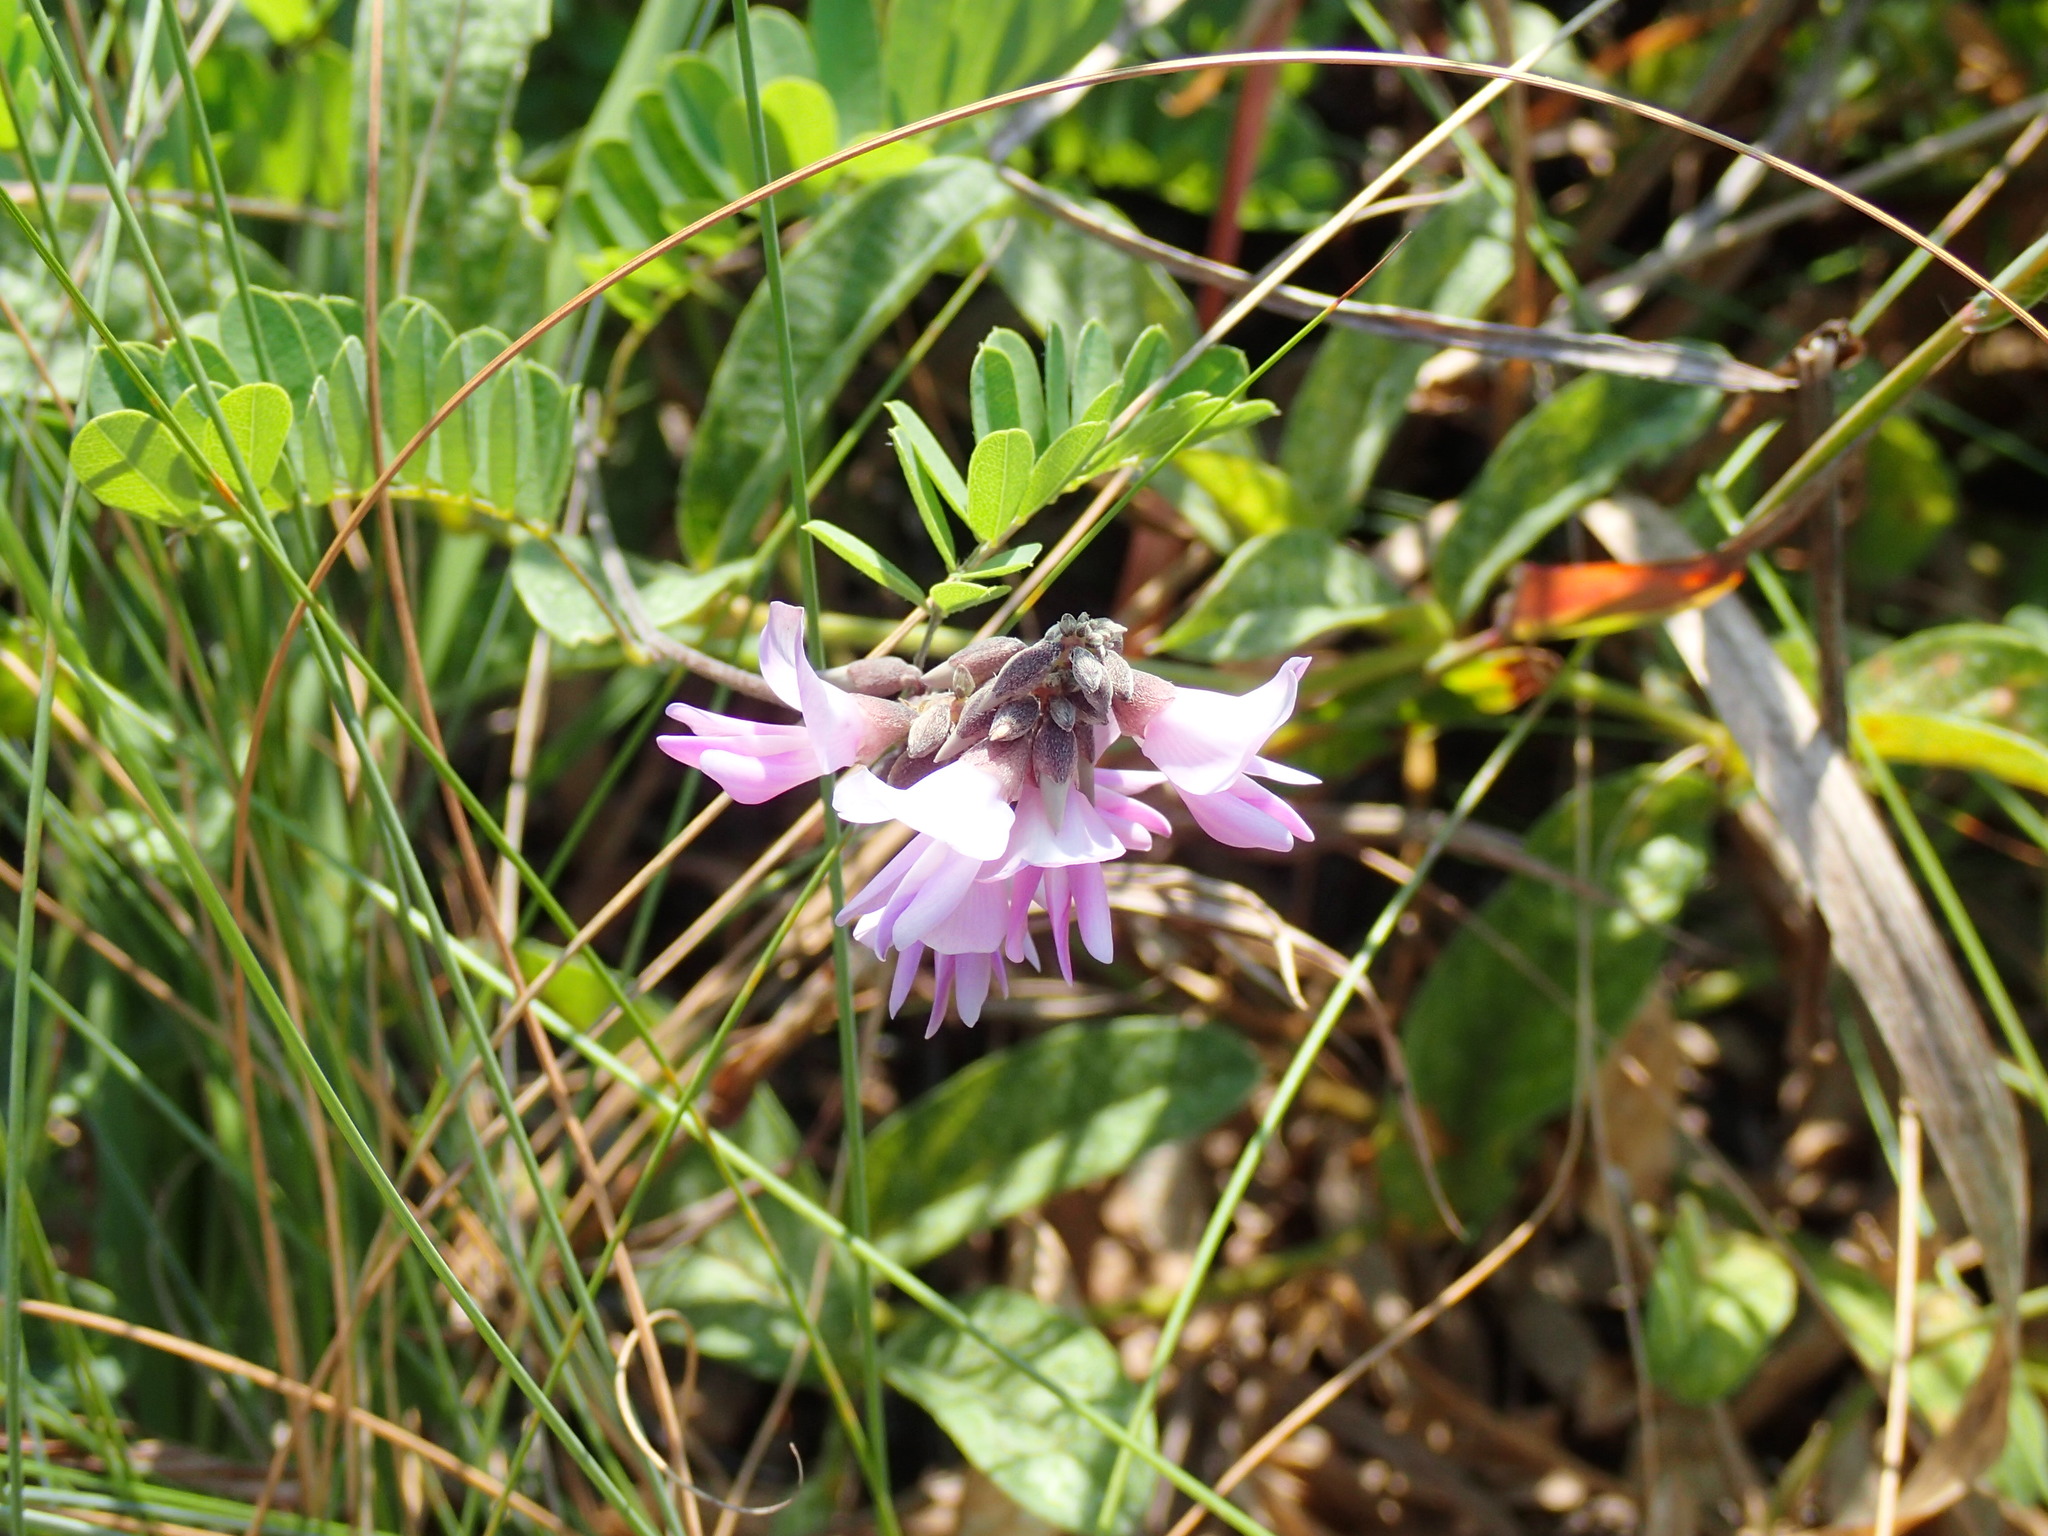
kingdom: Plantae
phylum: Tracheophyta
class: Magnoliopsida
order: Fabales
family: Fabaceae
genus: Abrus
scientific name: Abrus laevigatus
